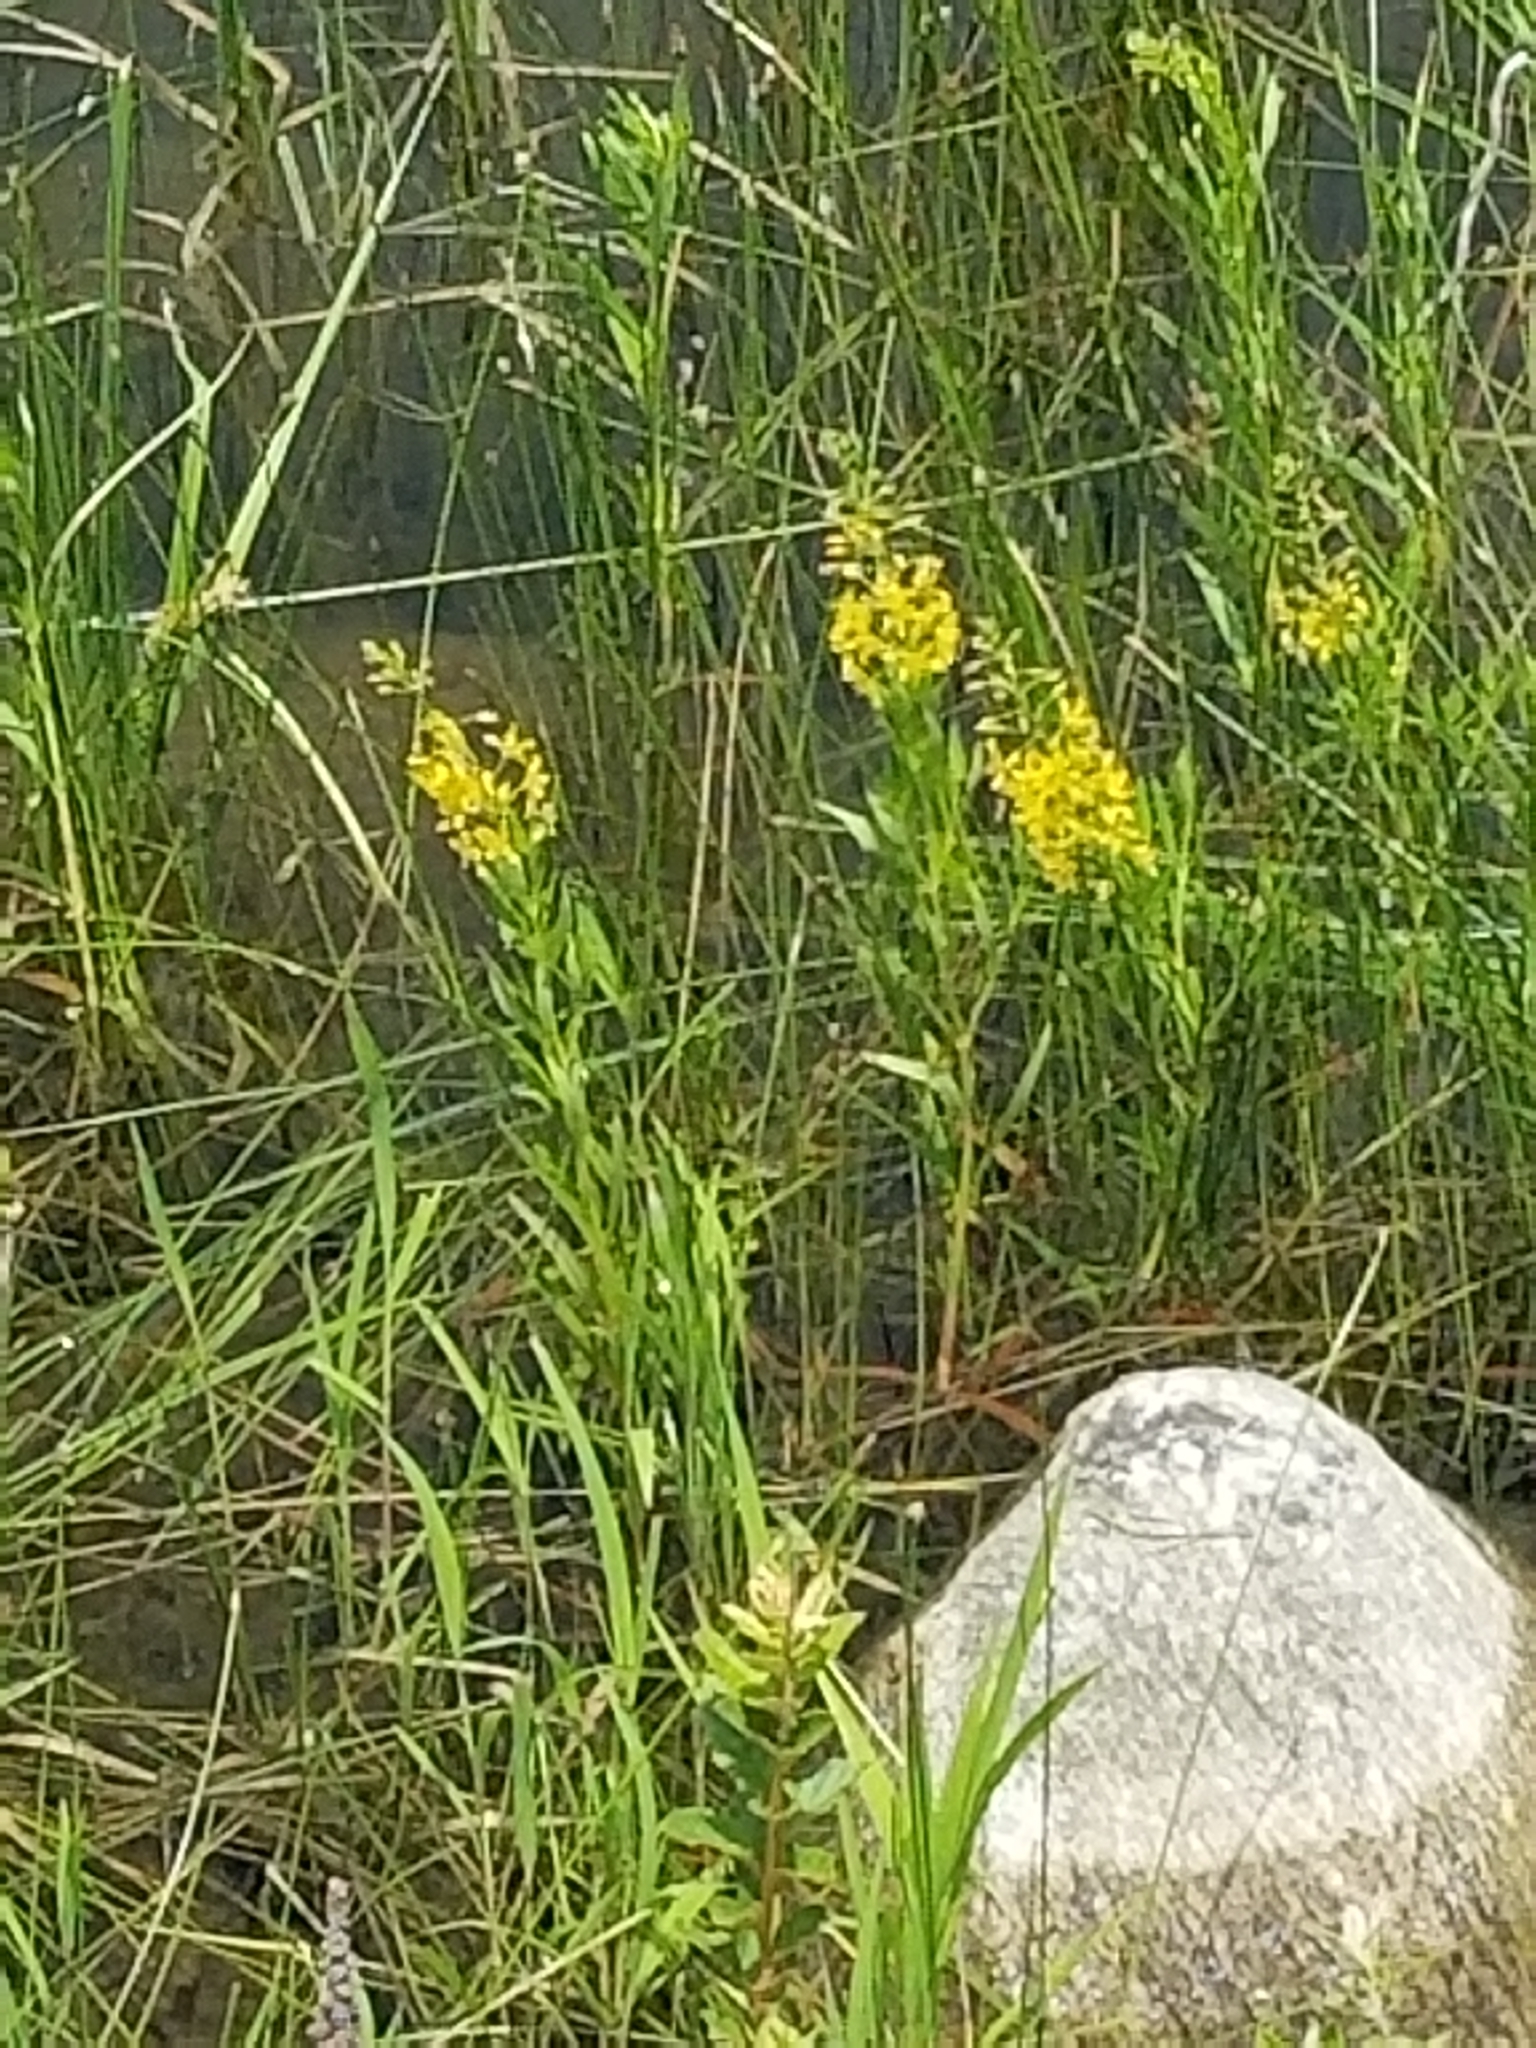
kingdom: Plantae
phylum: Tracheophyta
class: Magnoliopsida
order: Ericales
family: Primulaceae
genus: Lysimachia
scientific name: Lysimachia terrestris
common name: Lake loosestrife
